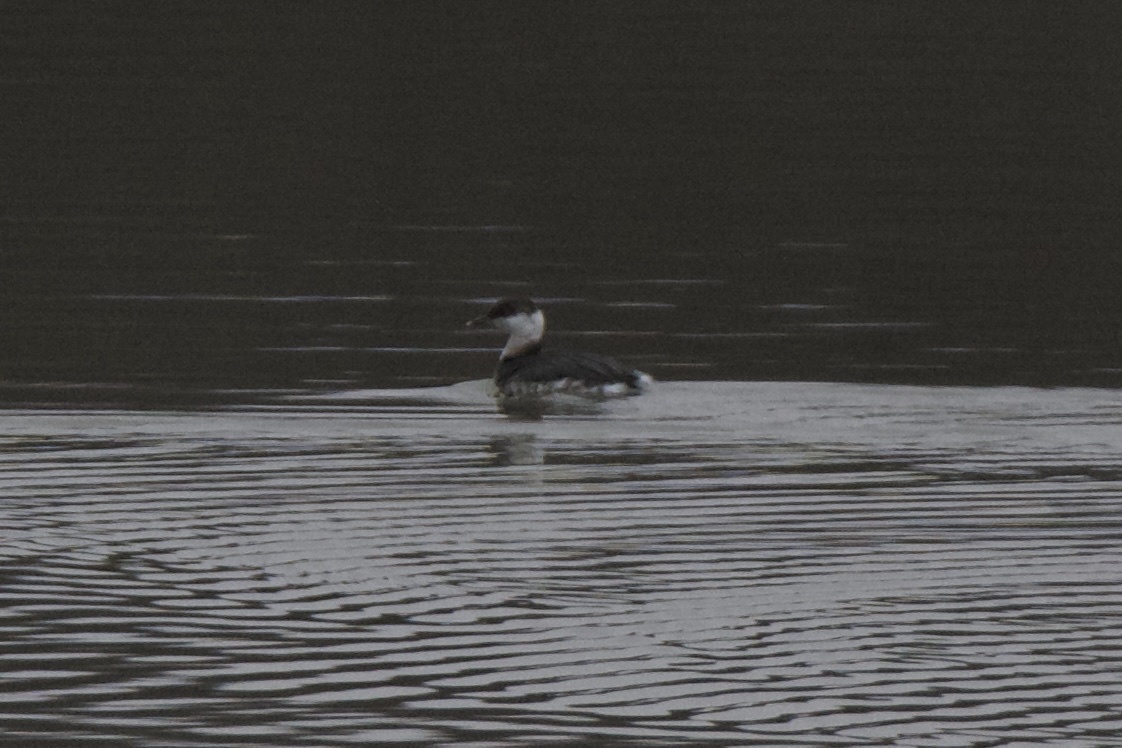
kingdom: Animalia
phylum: Chordata
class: Aves
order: Podicipediformes
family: Podicipedidae
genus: Podiceps
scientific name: Podiceps auritus
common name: Horned grebe
